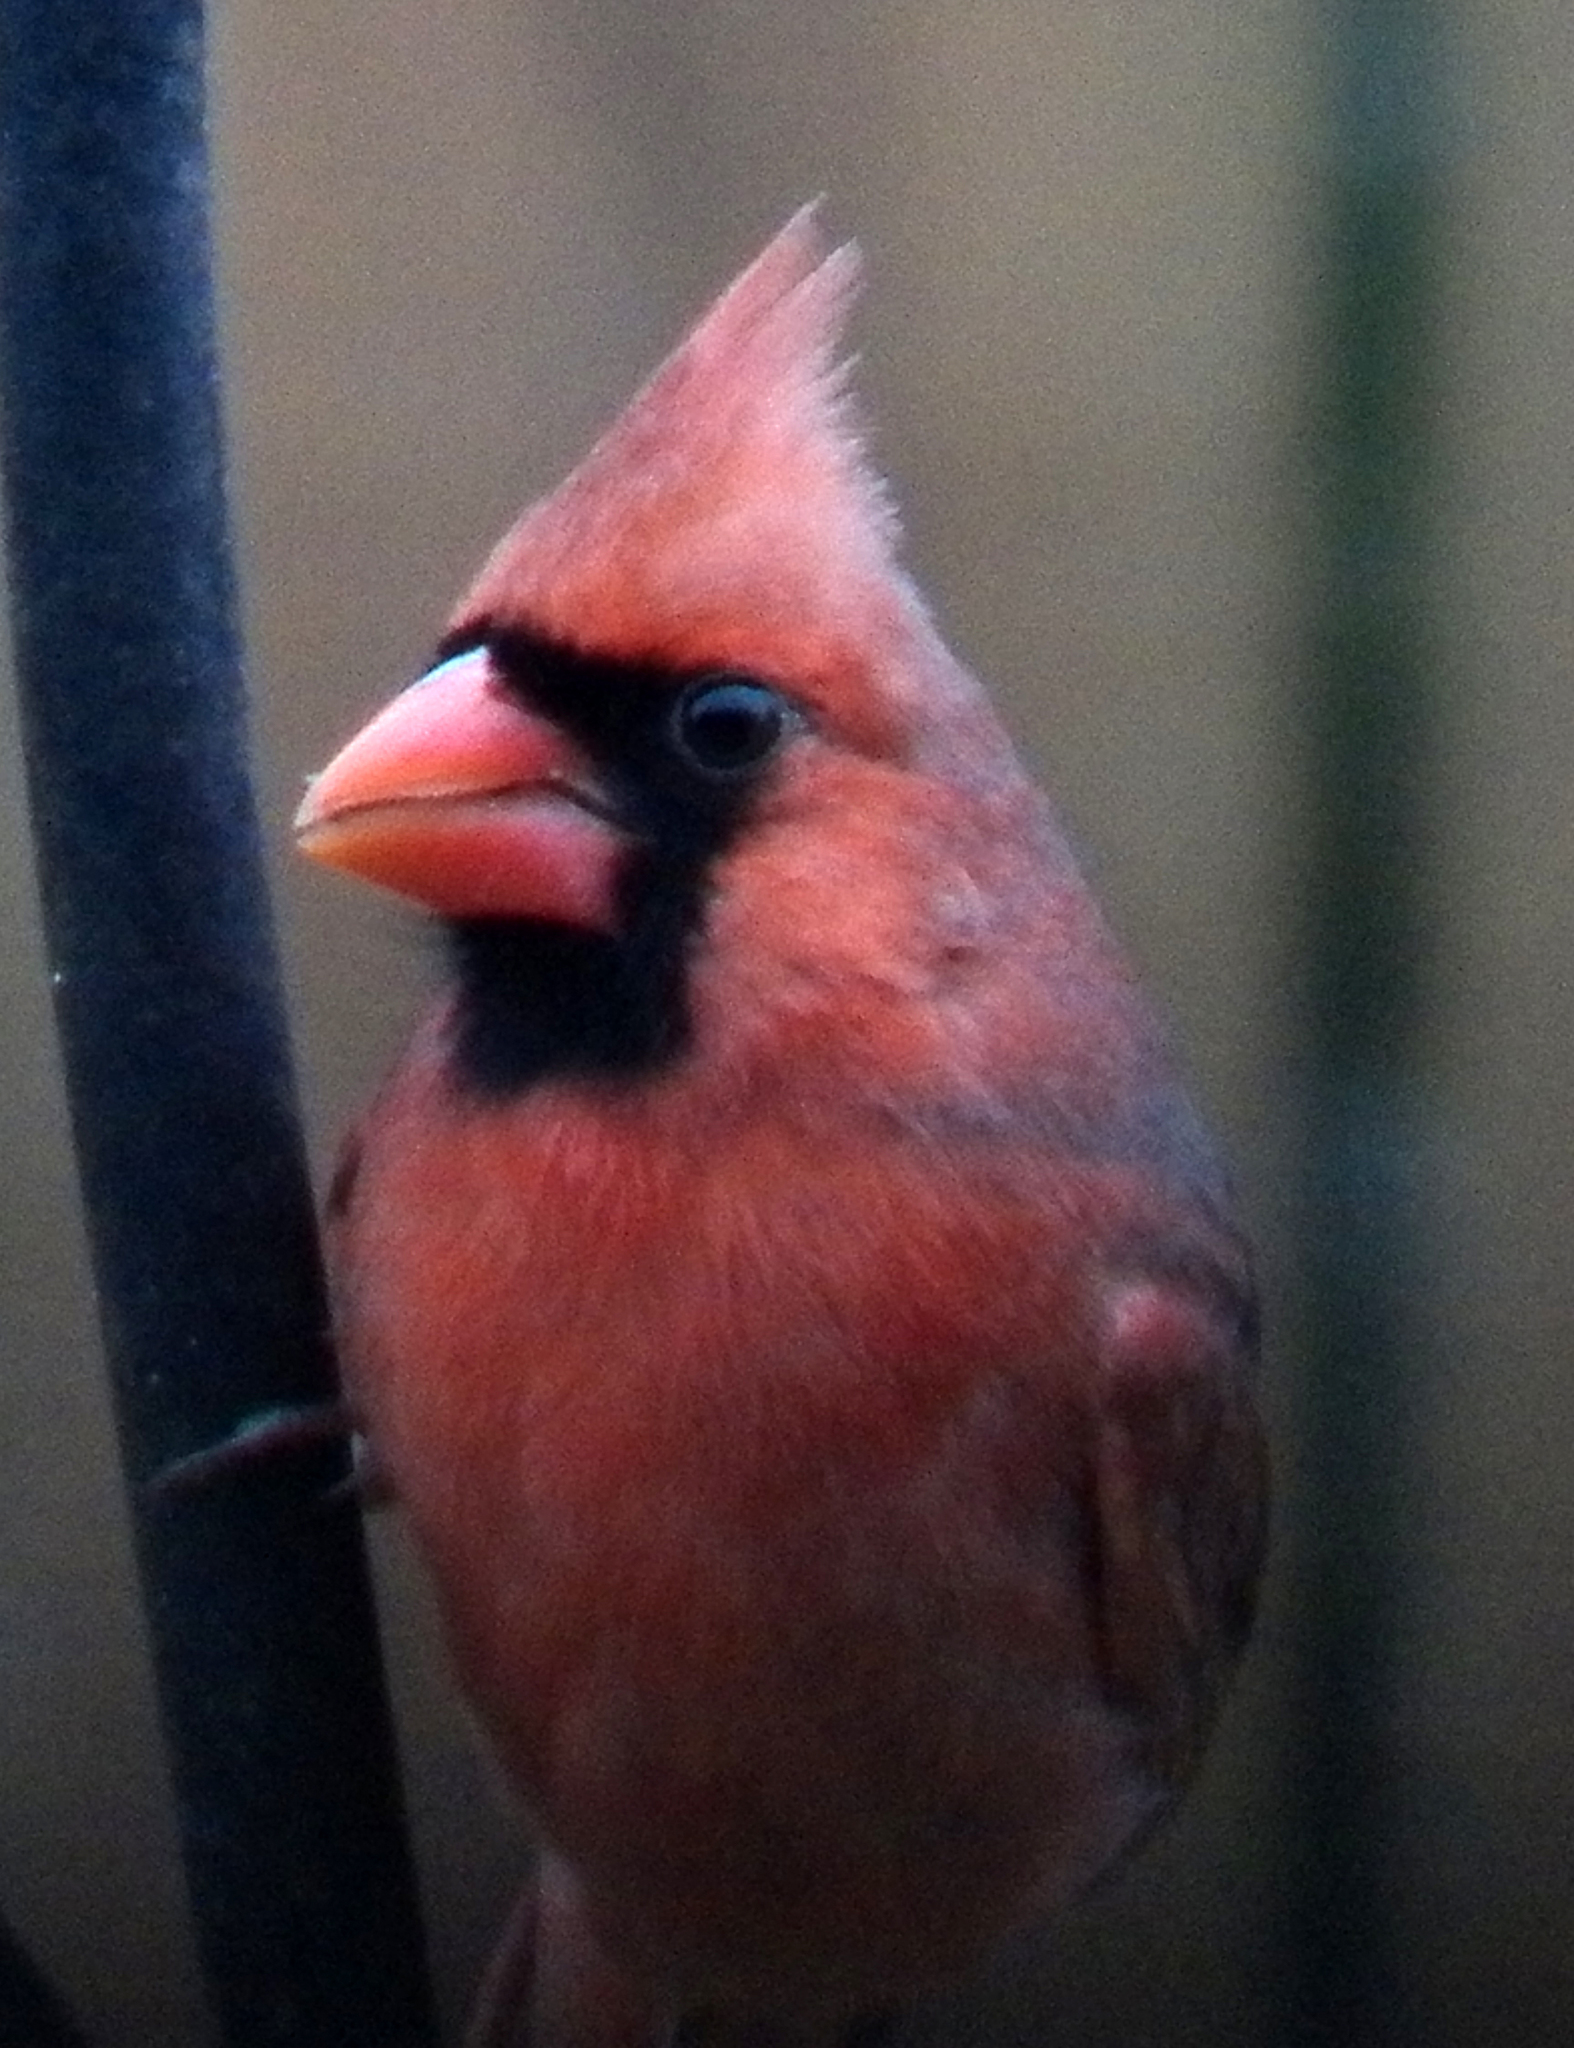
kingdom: Animalia
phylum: Chordata
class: Aves
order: Passeriformes
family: Cardinalidae
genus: Cardinalis
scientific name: Cardinalis cardinalis
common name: Northern cardinal
